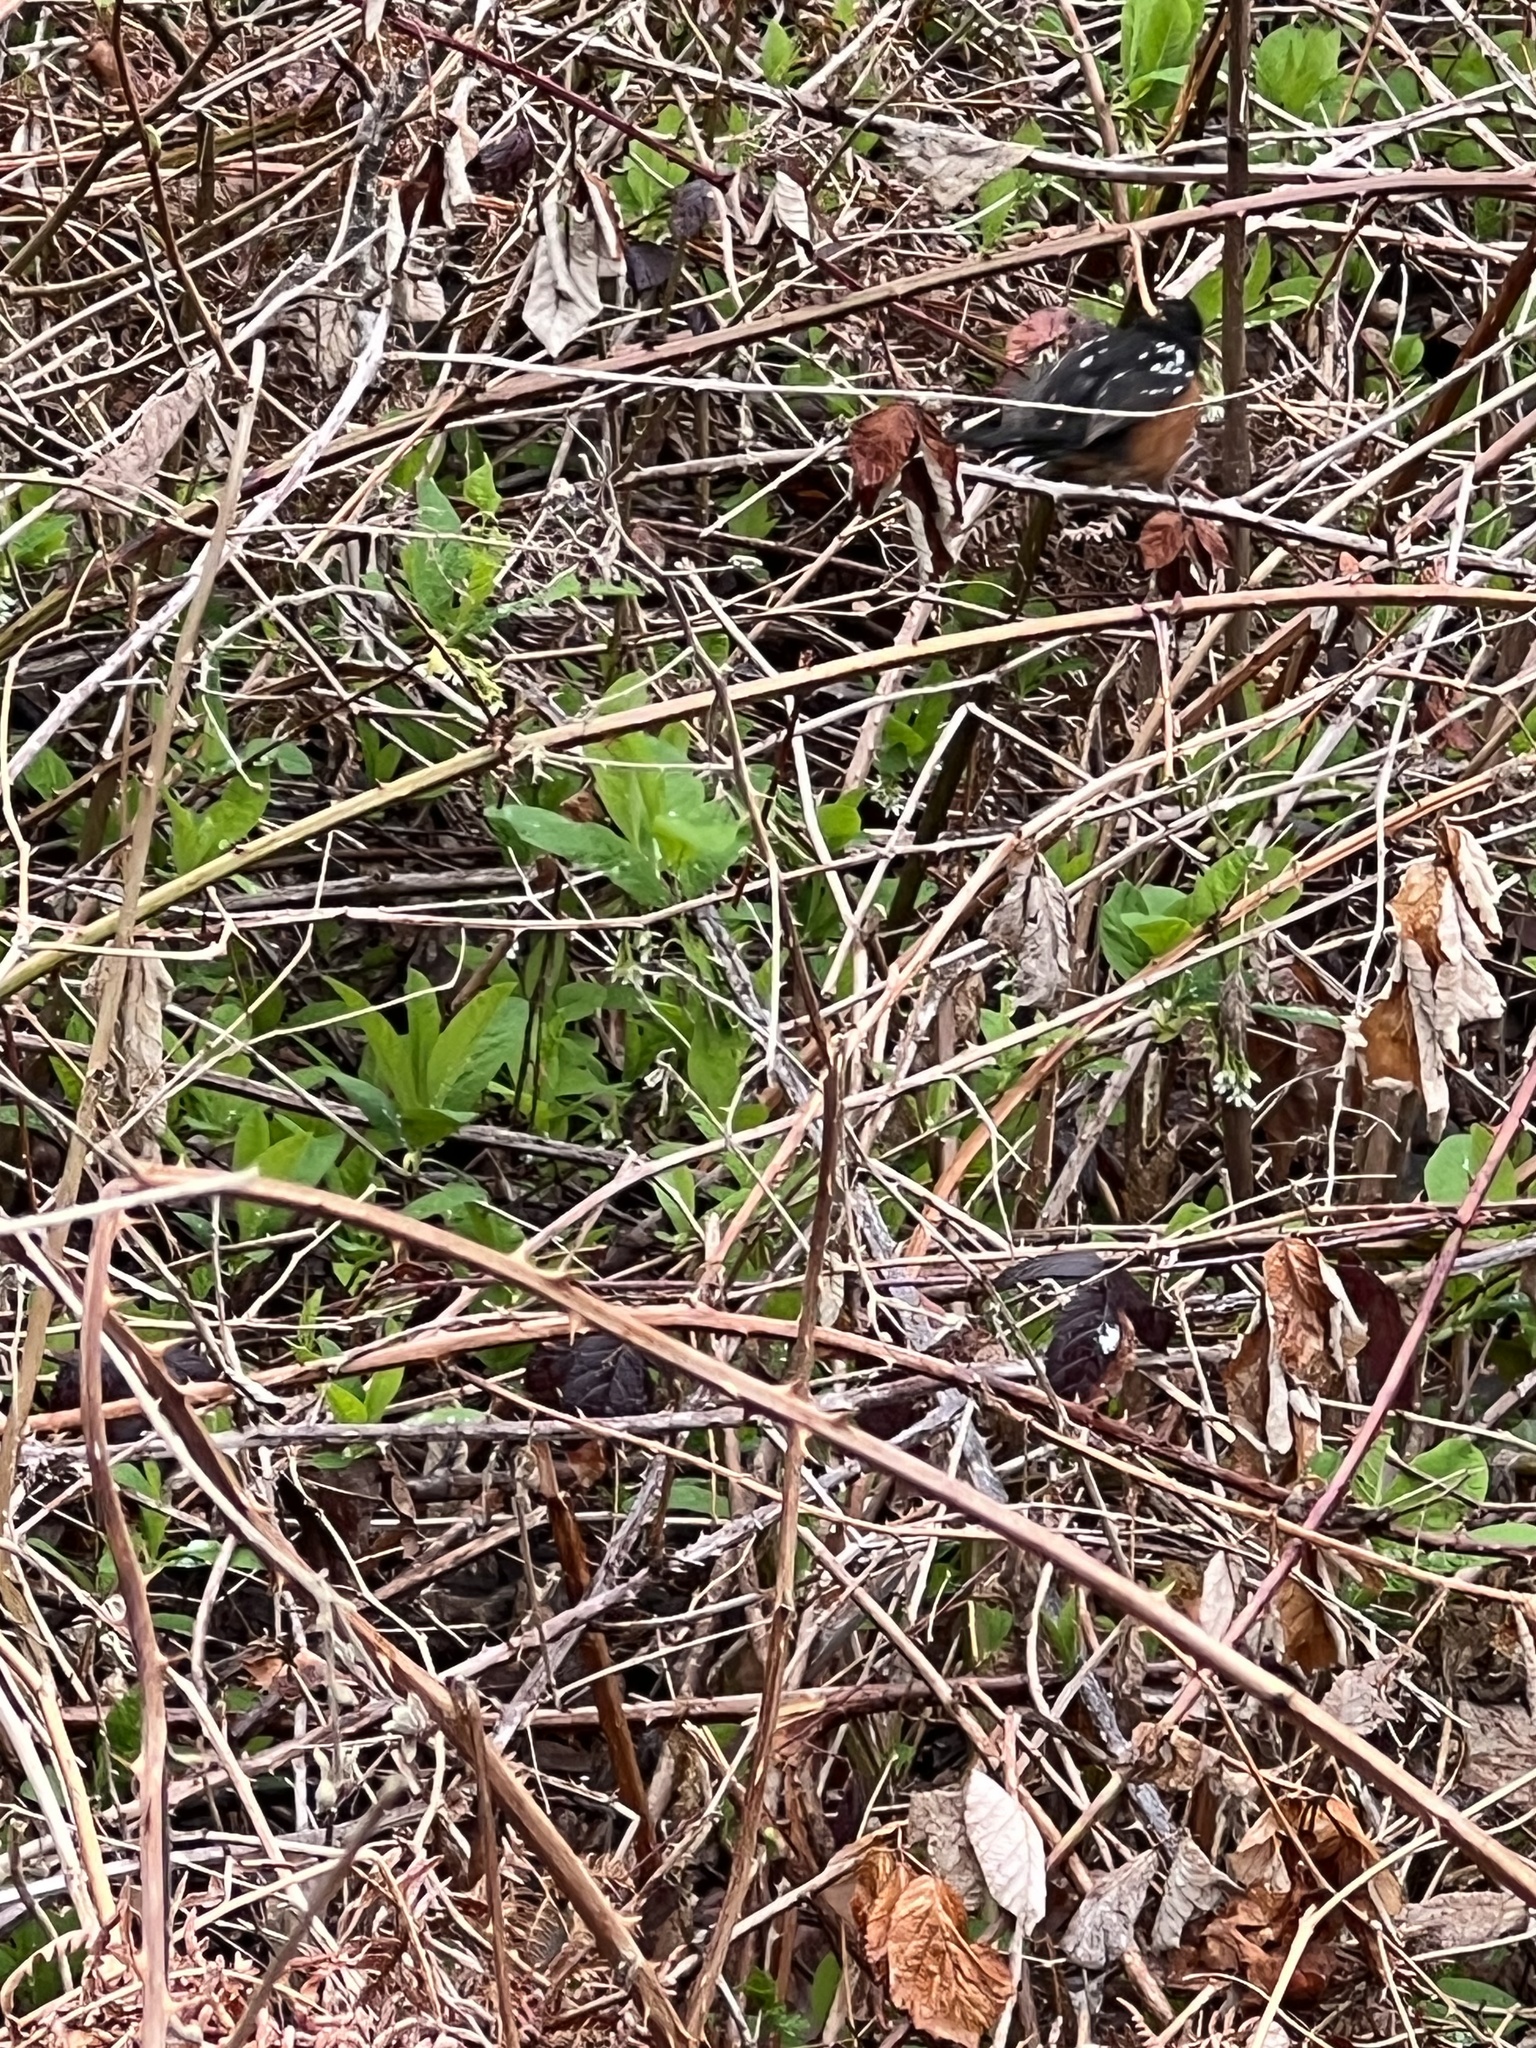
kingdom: Animalia
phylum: Chordata
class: Aves
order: Passeriformes
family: Passerellidae
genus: Pipilo
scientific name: Pipilo maculatus
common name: Spotted towhee
